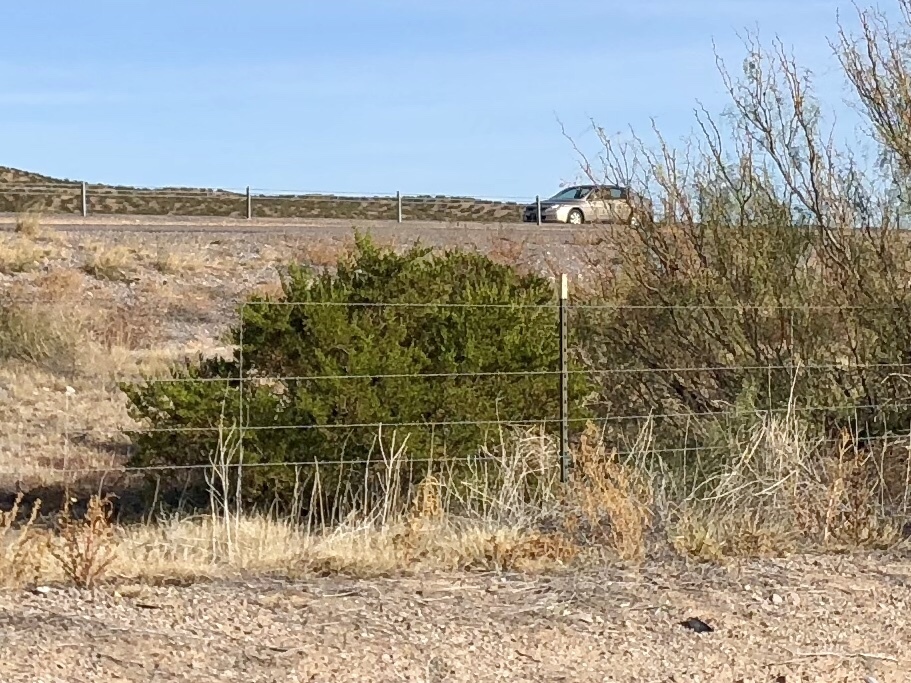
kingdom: Plantae
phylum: Tracheophyta
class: Magnoliopsida
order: Zygophyllales
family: Zygophyllaceae
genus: Larrea
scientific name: Larrea tridentata
